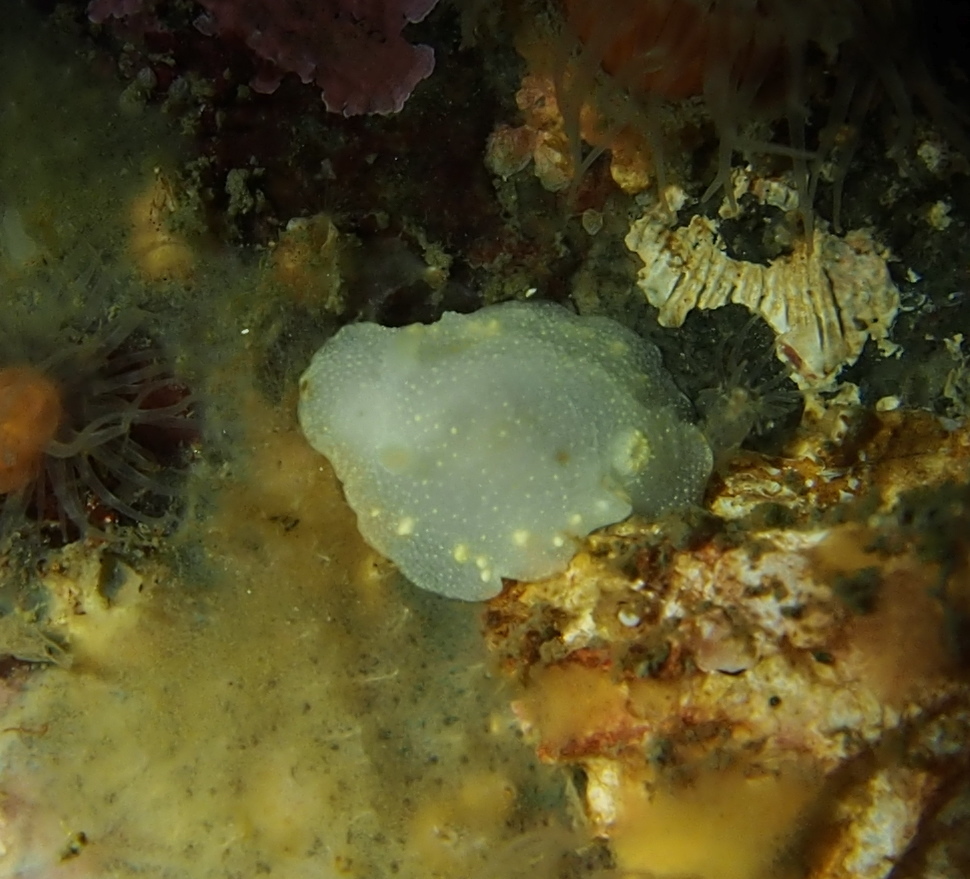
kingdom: Animalia
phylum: Mollusca
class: Gastropoda
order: Nudibranchia
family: Cadlinidae
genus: Cadlina
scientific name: Cadlina laevis
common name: White atlantic cadlina
